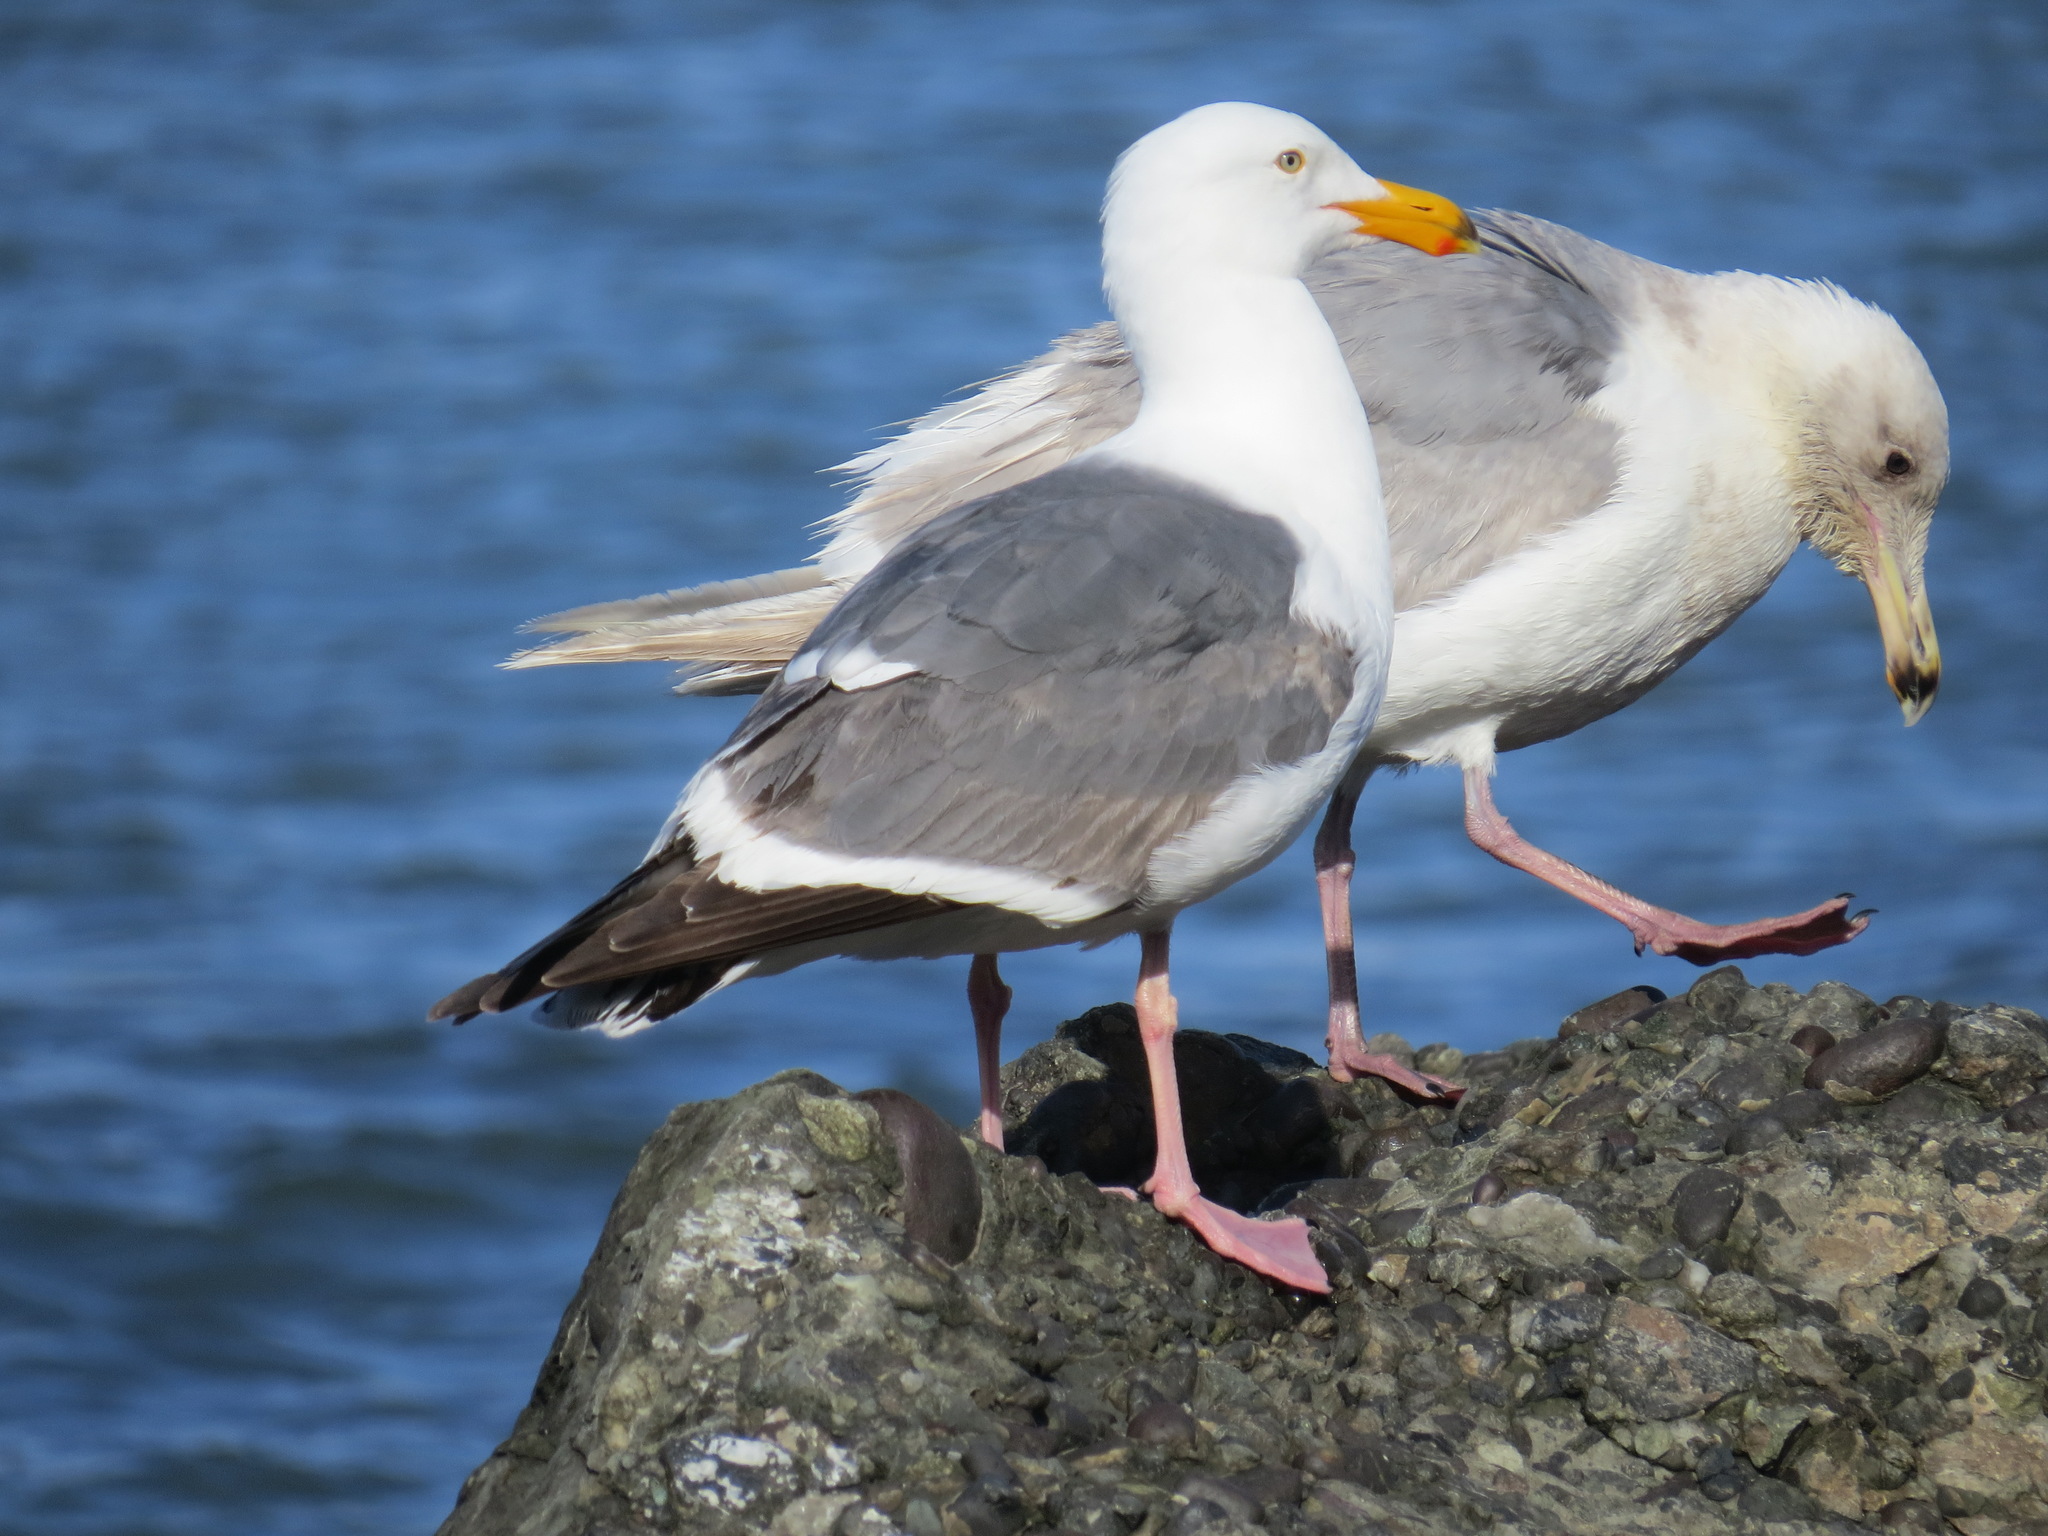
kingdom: Animalia
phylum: Chordata
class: Aves
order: Charadriiformes
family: Laridae
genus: Larus
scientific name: Larus occidentalis
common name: Western gull
